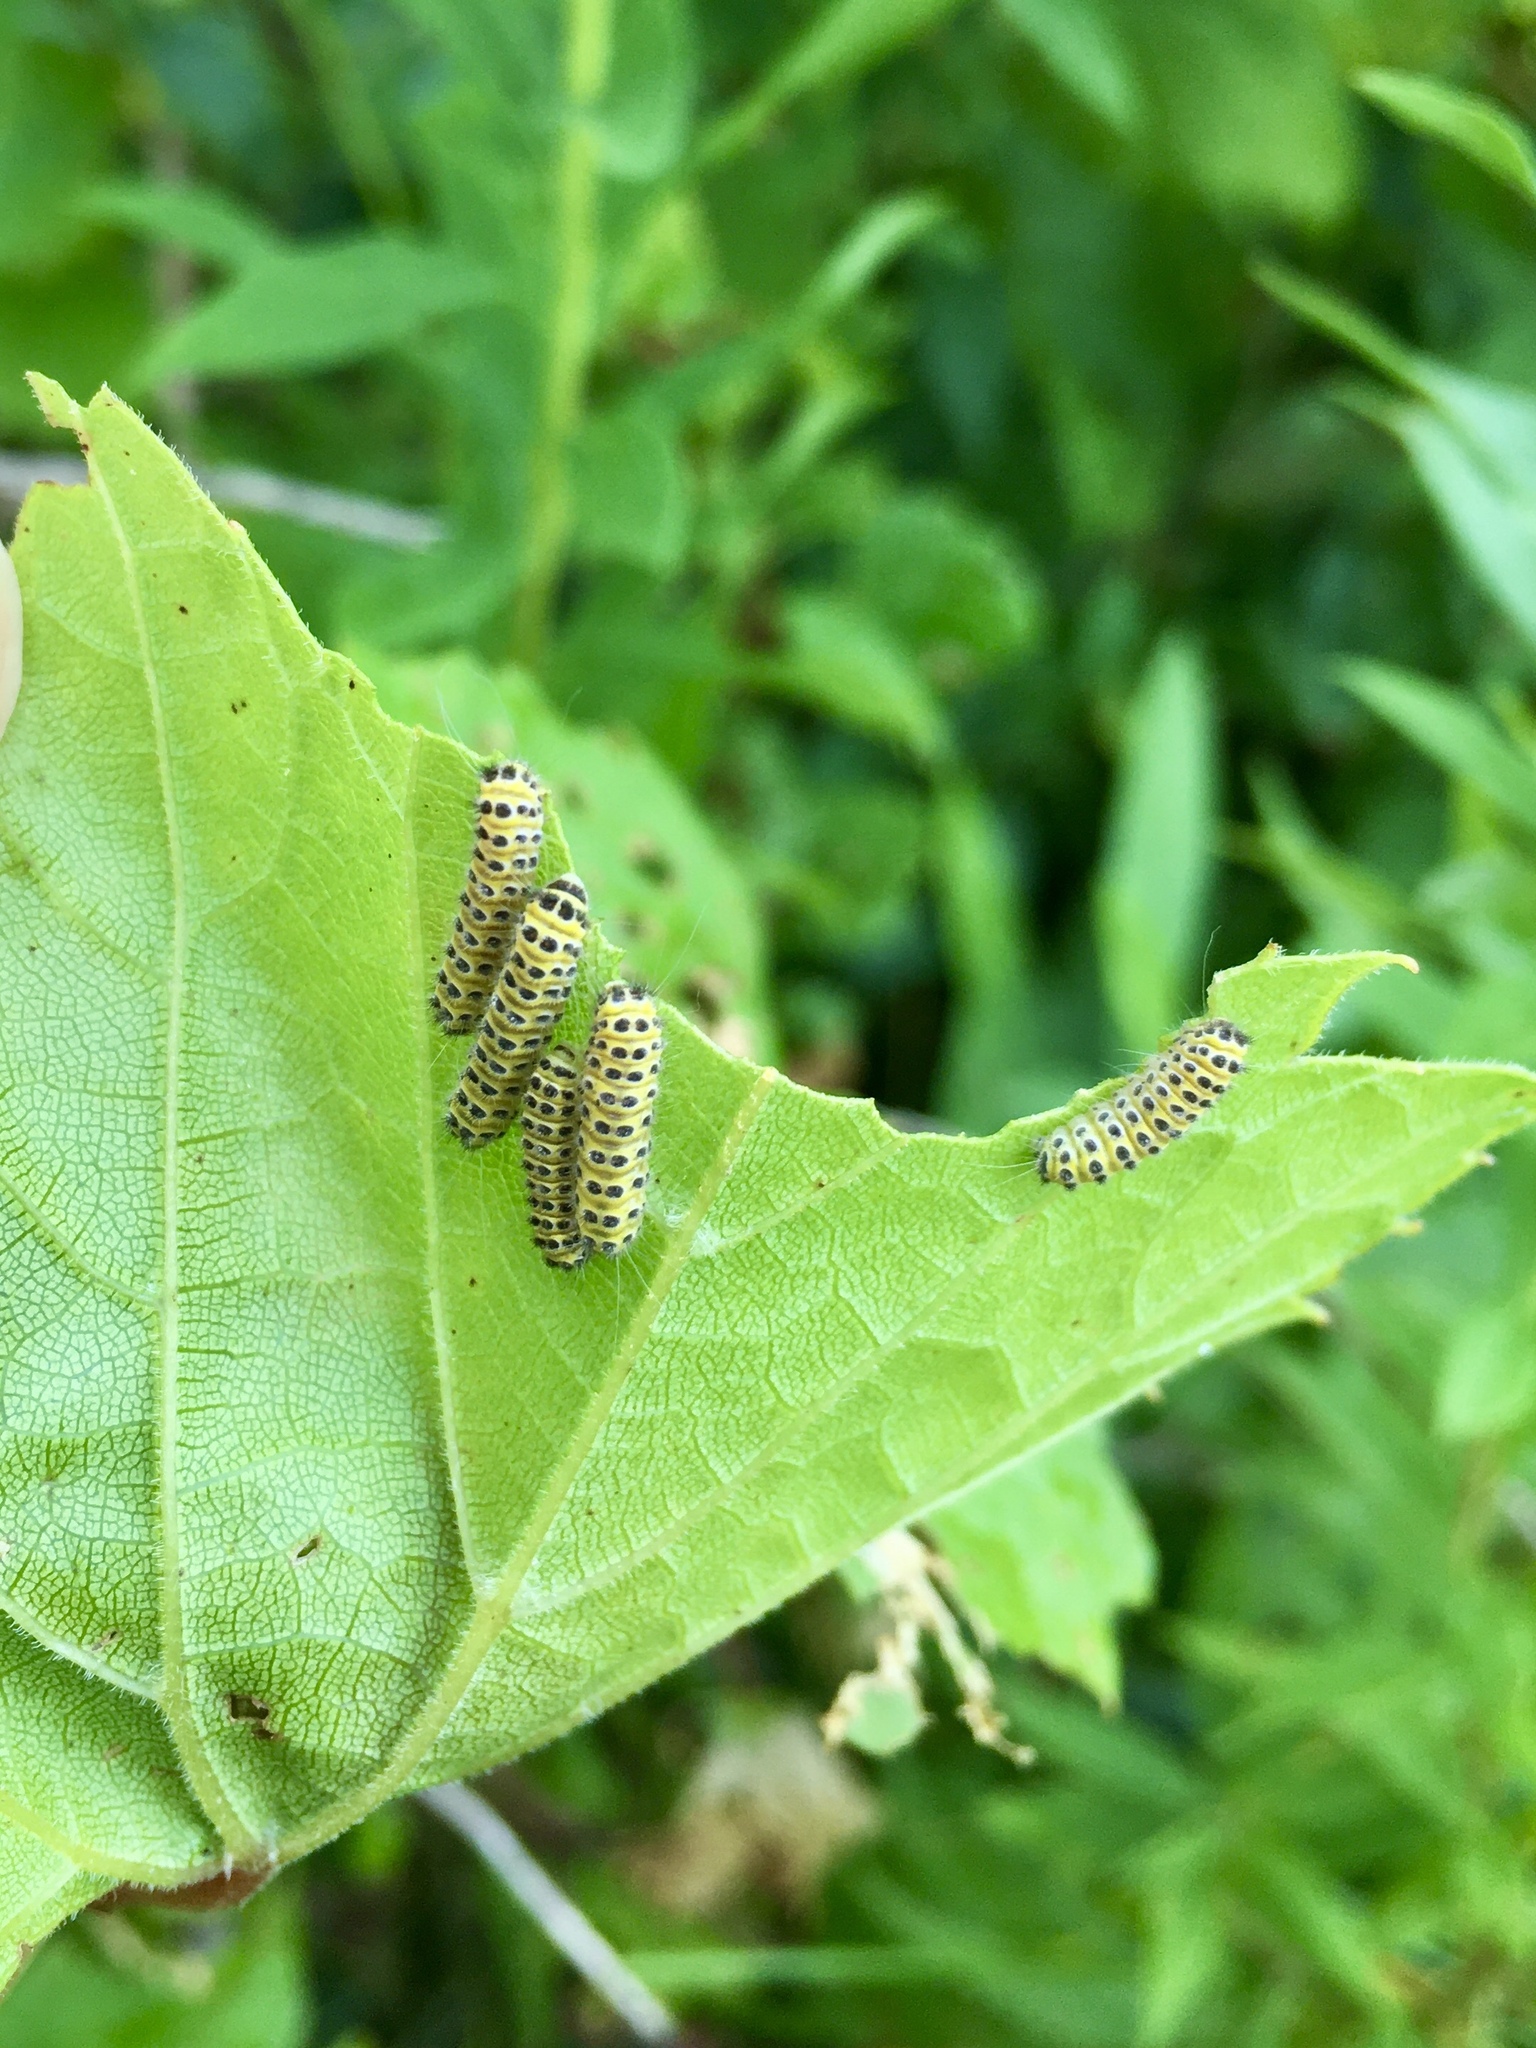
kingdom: Animalia
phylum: Arthropoda
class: Insecta
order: Lepidoptera
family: Zygaenidae
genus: Harrisina
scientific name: Harrisina americana
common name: Grapeleaf skeletonizer moth
